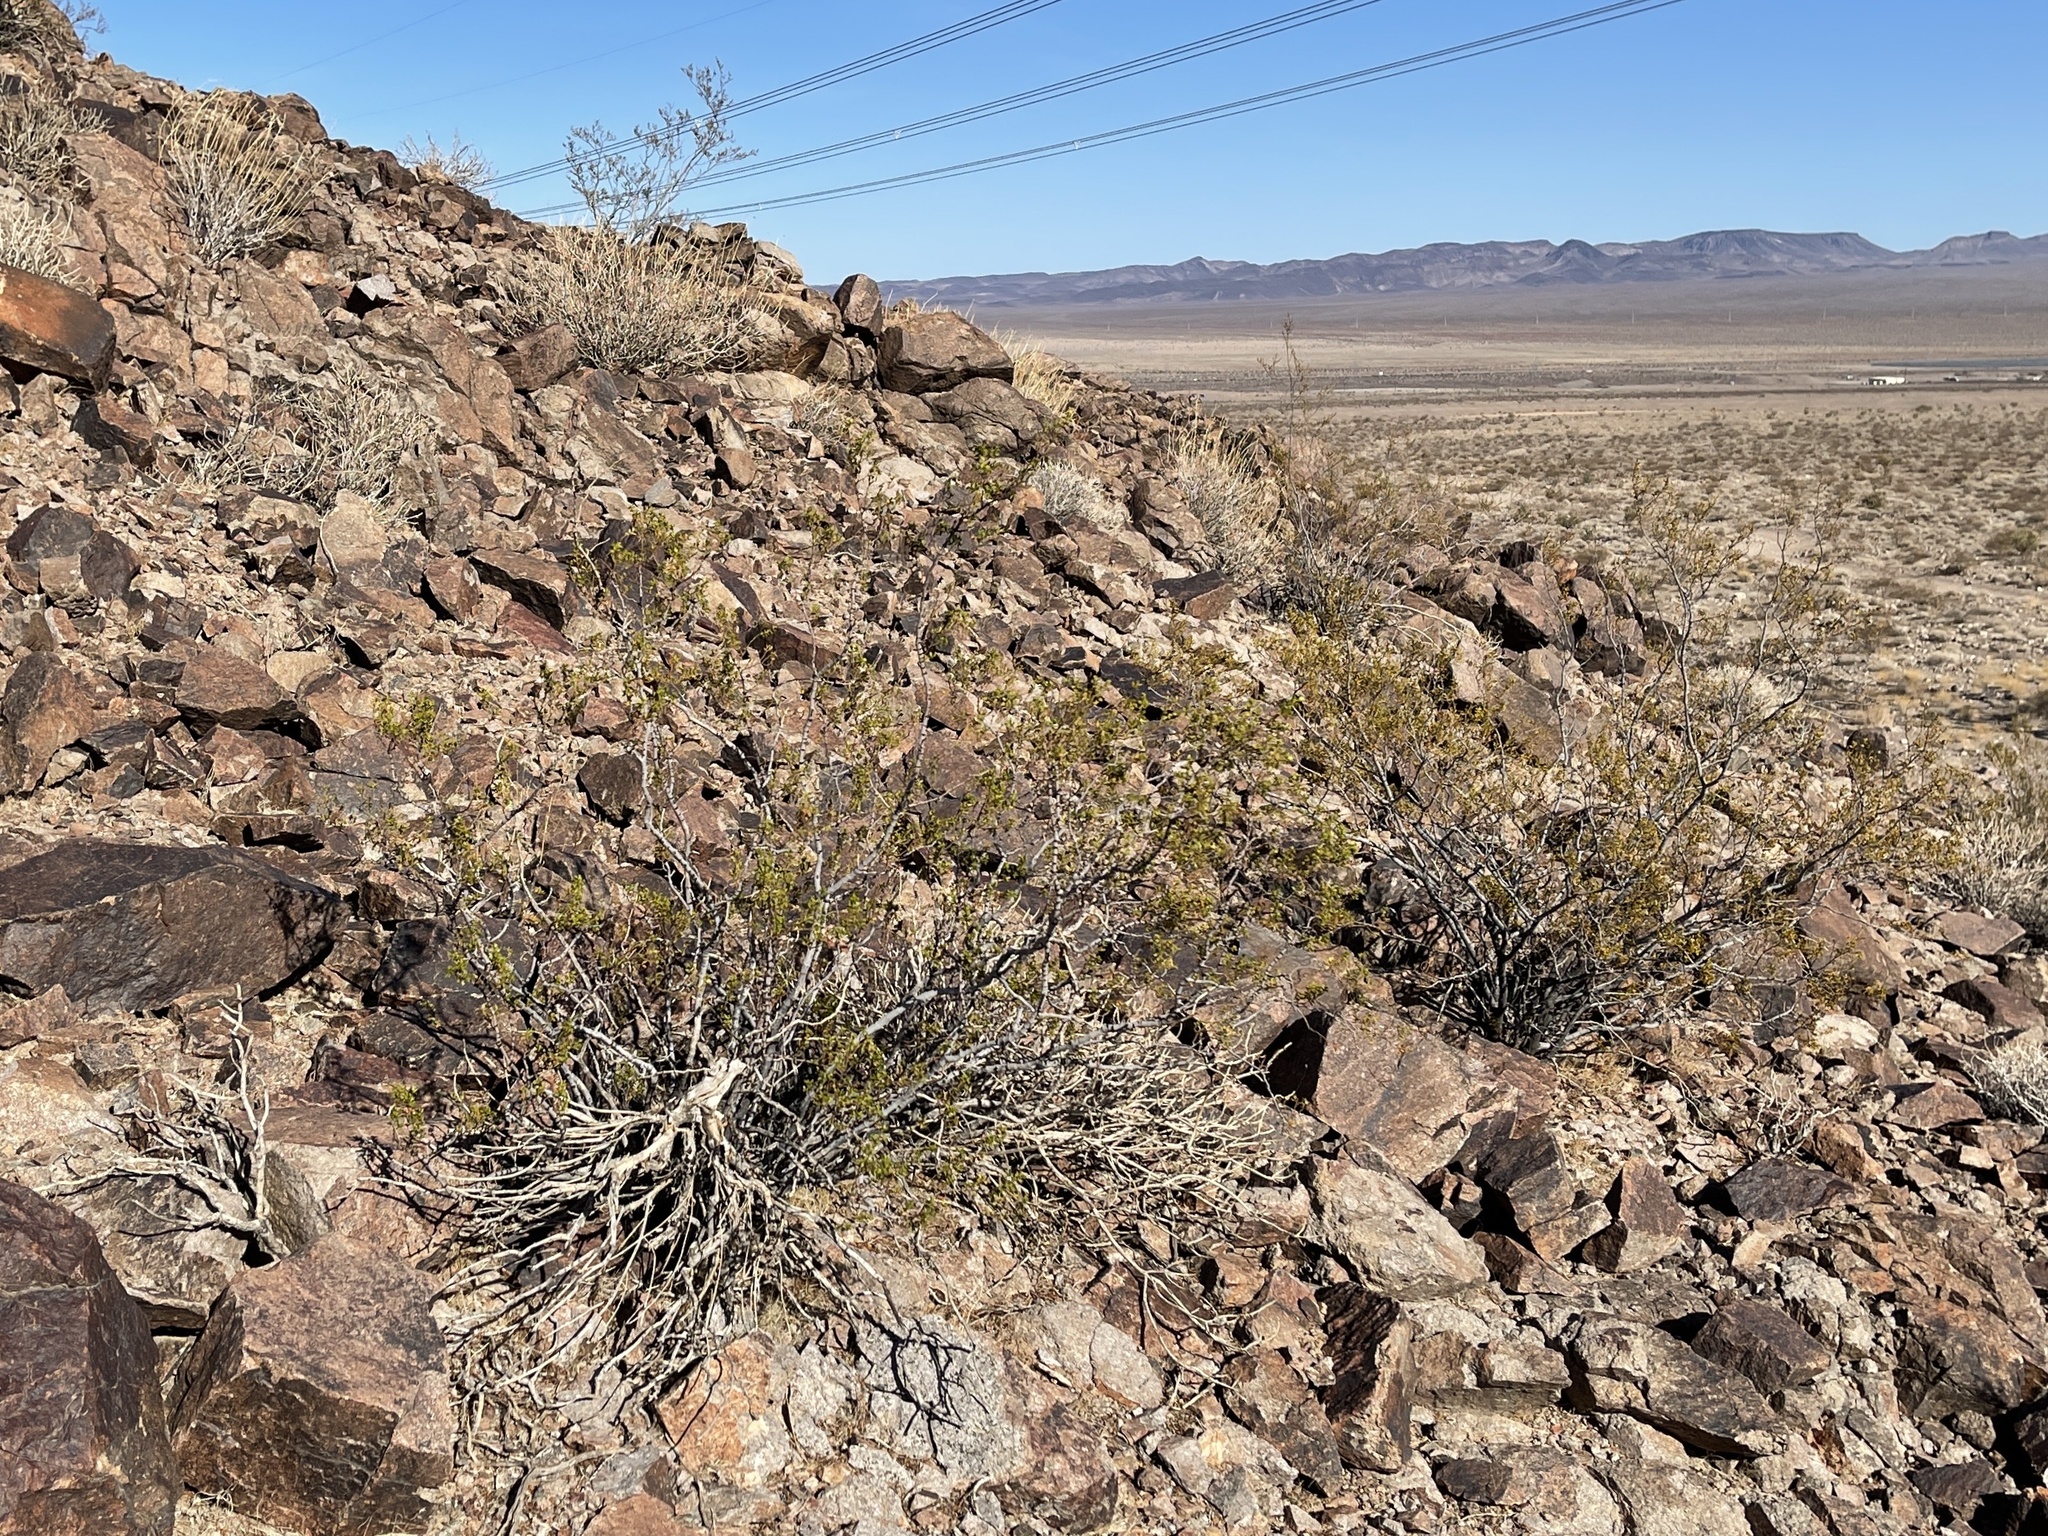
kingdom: Plantae
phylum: Tracheophyta
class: Magnoliopsida
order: Zygophyllales
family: Zygophyllaceae
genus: Larrea
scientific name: Larrea tridentata
